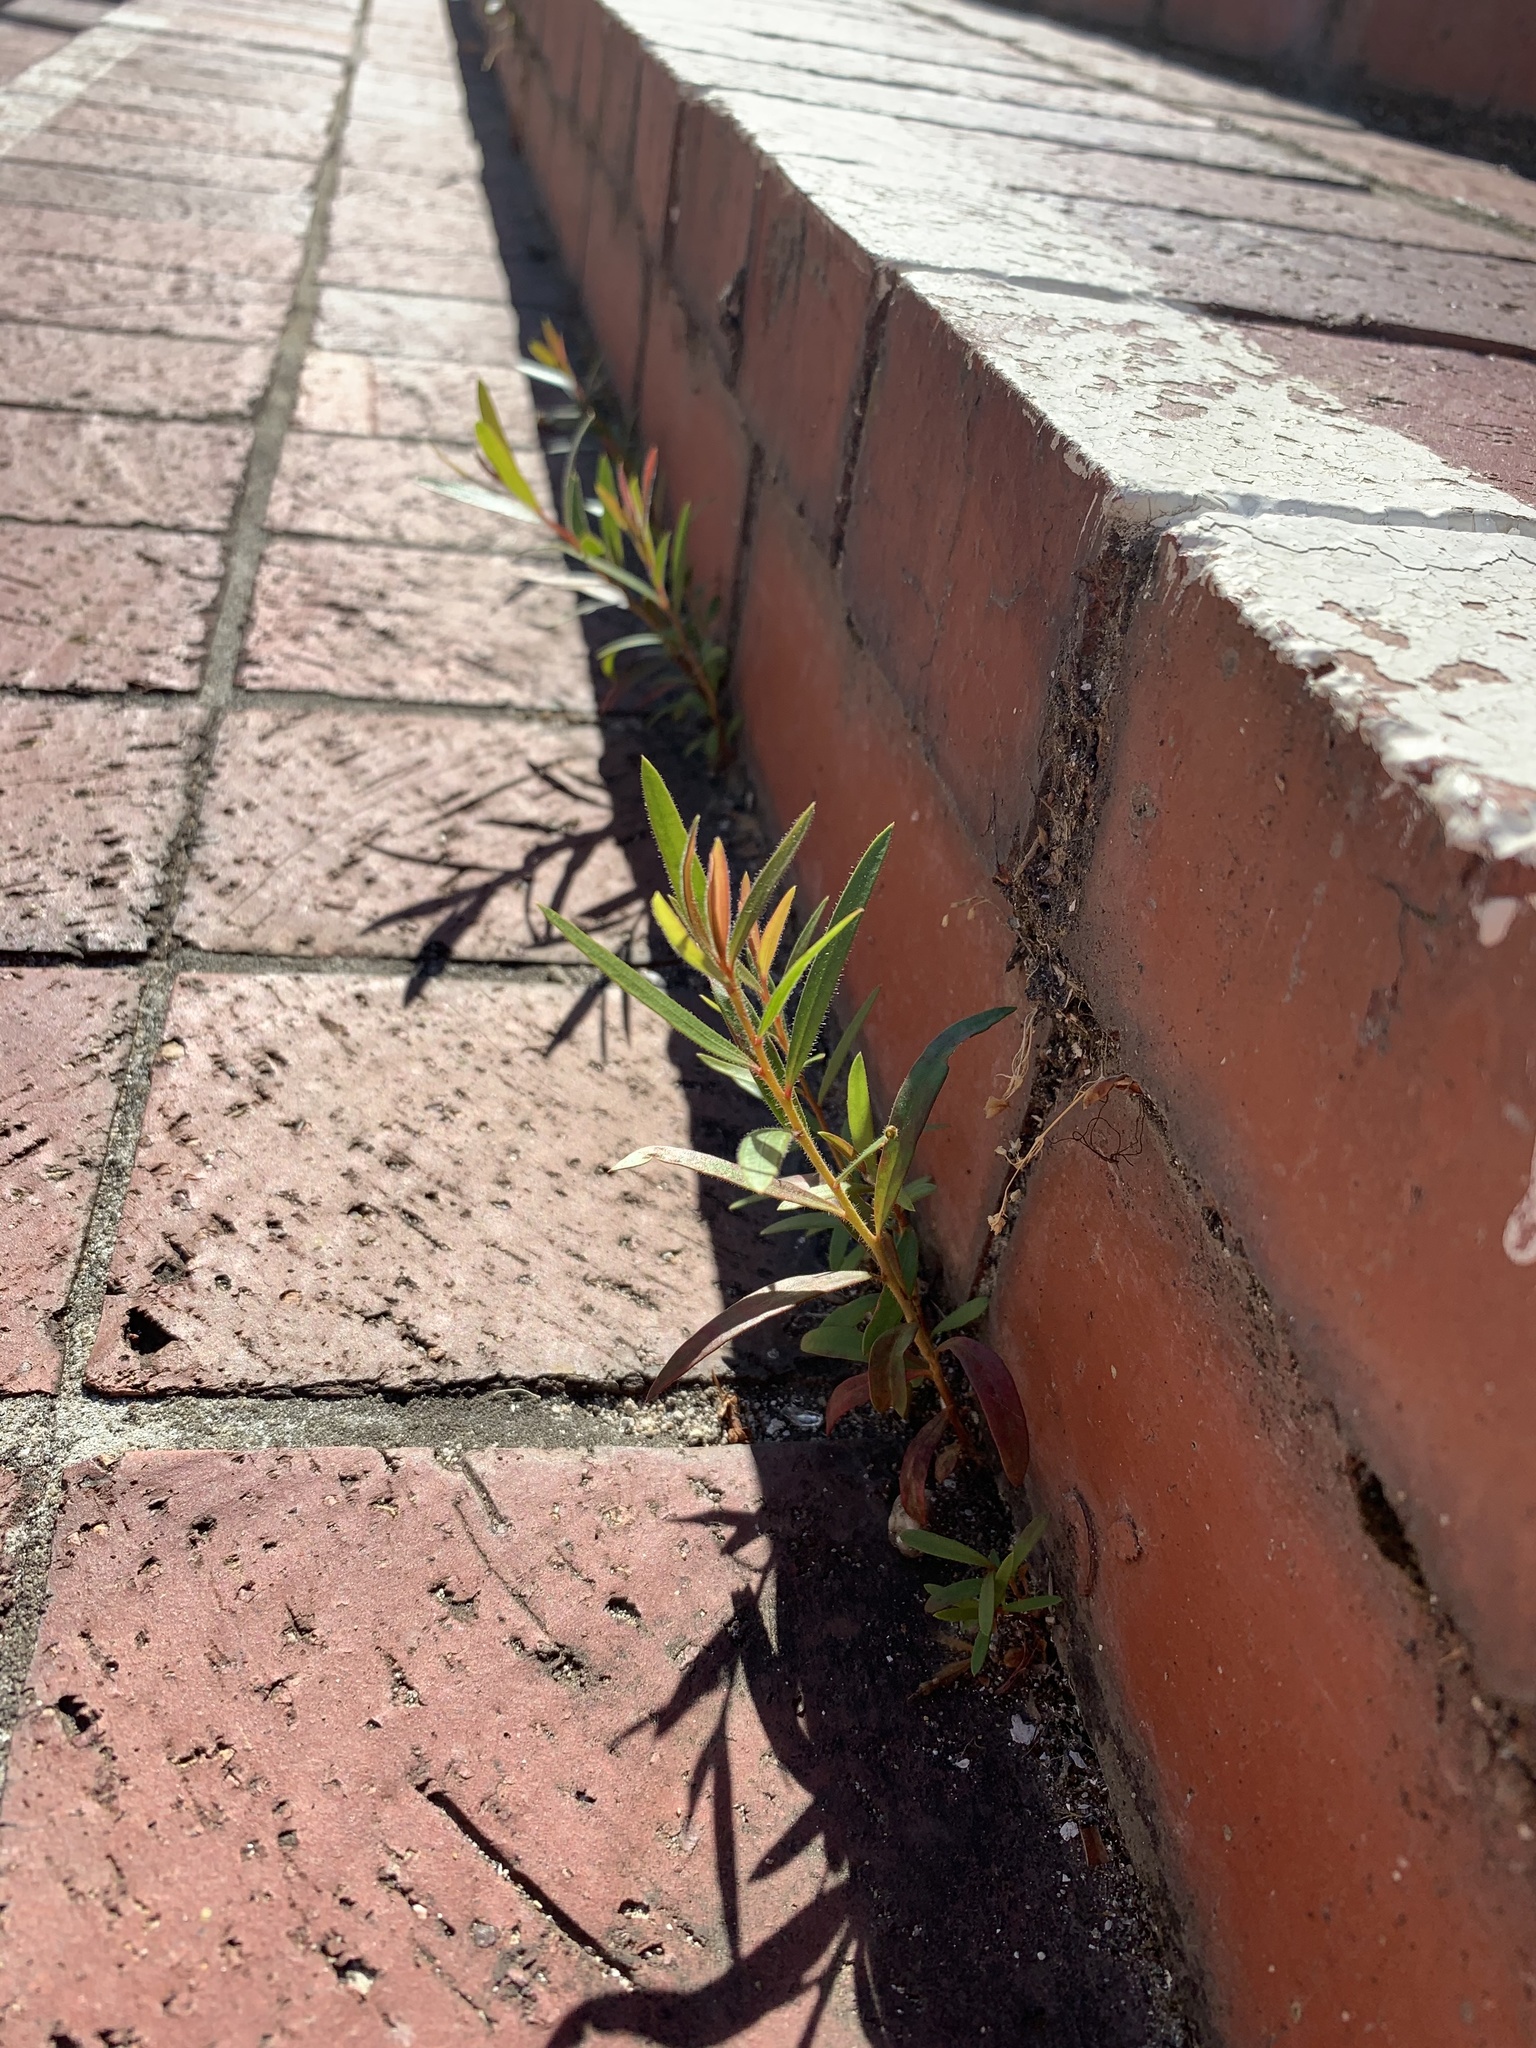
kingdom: Plantae
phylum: Tracheophyta
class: Magnoliopsida
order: Myrtales
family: Myrtaceae
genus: Callistemon
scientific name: Callistemon viminalis
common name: Drooping bottlebrush
